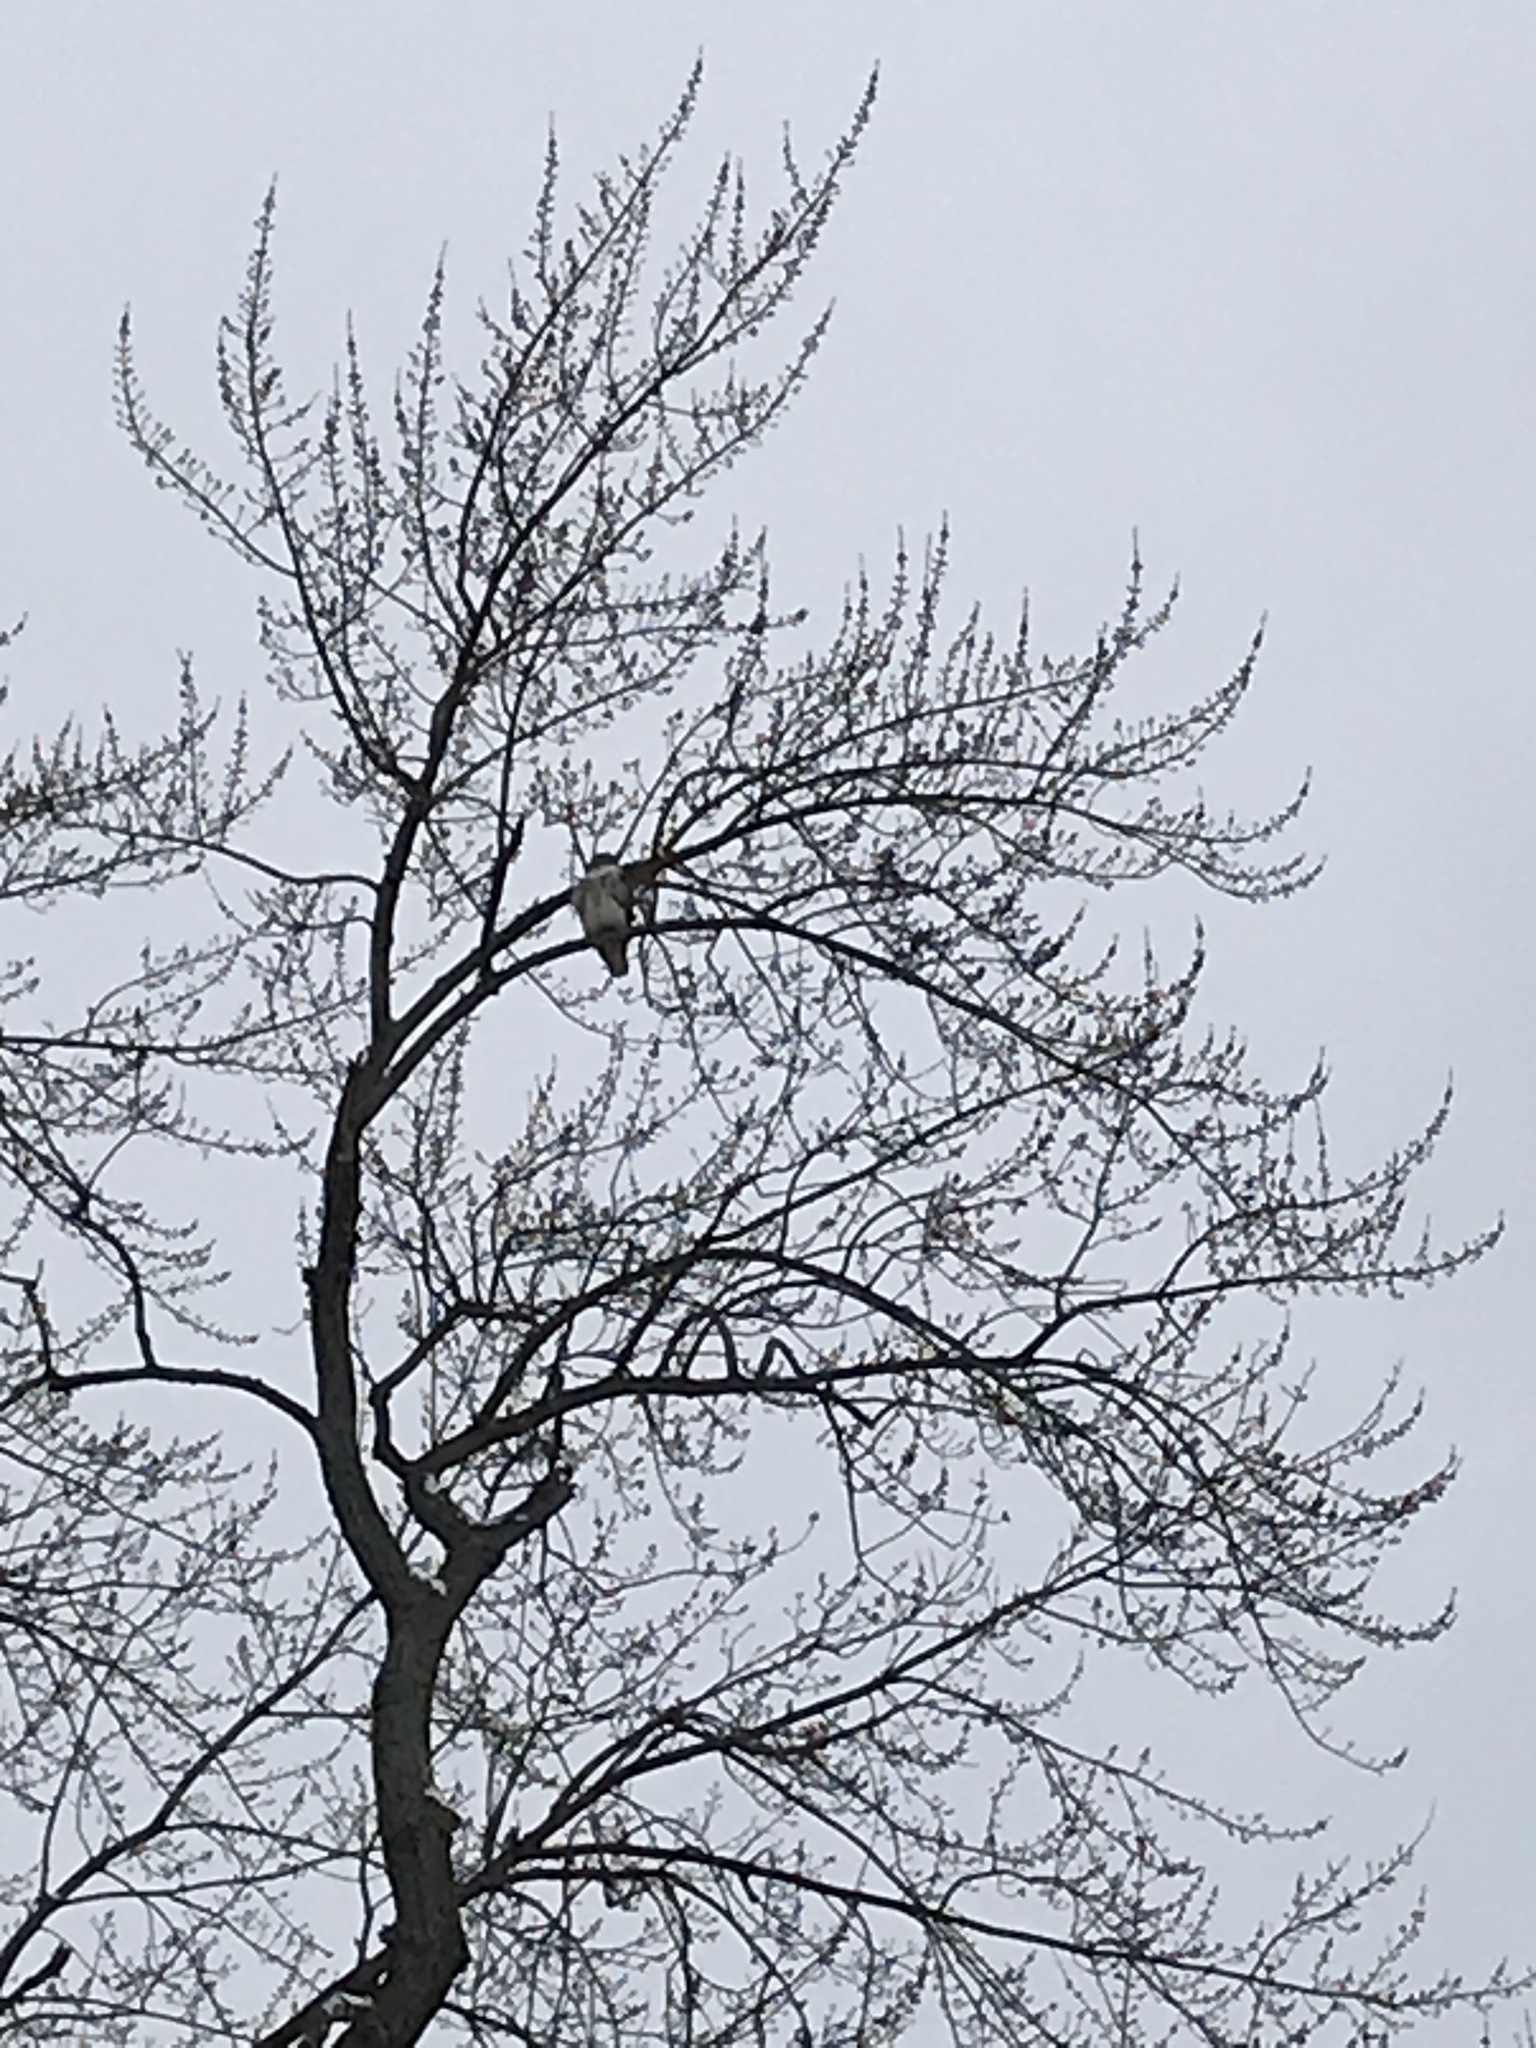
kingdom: Animalia
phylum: Chordata
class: Aves
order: Accipitriformes
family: Accipitridae
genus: Buteo
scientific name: Buteo jamaicensis
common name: Red-tailed hawk
